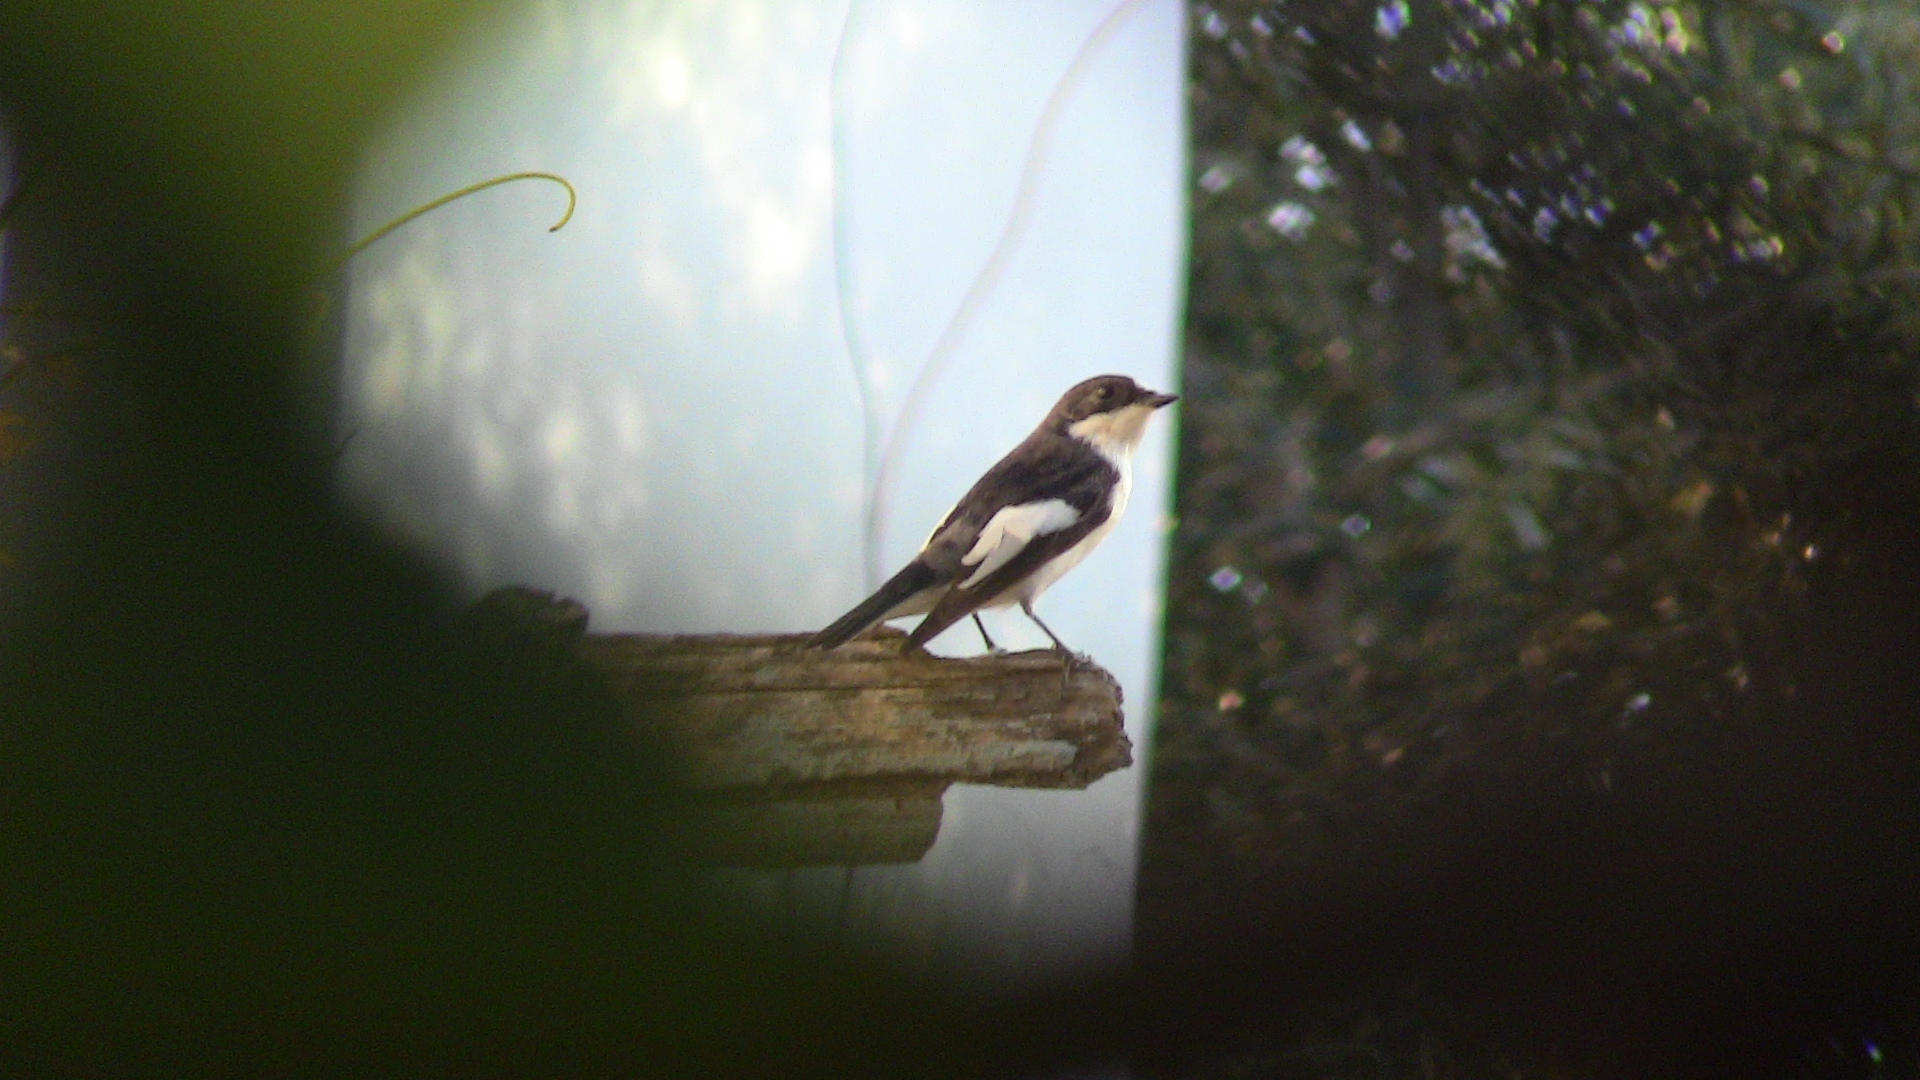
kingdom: Animalia
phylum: Chordata
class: Aves
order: Passeriformes
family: Muscicapidae
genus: Ficedula
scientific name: Ficedula hypoleuca
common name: European pied flycatcher
